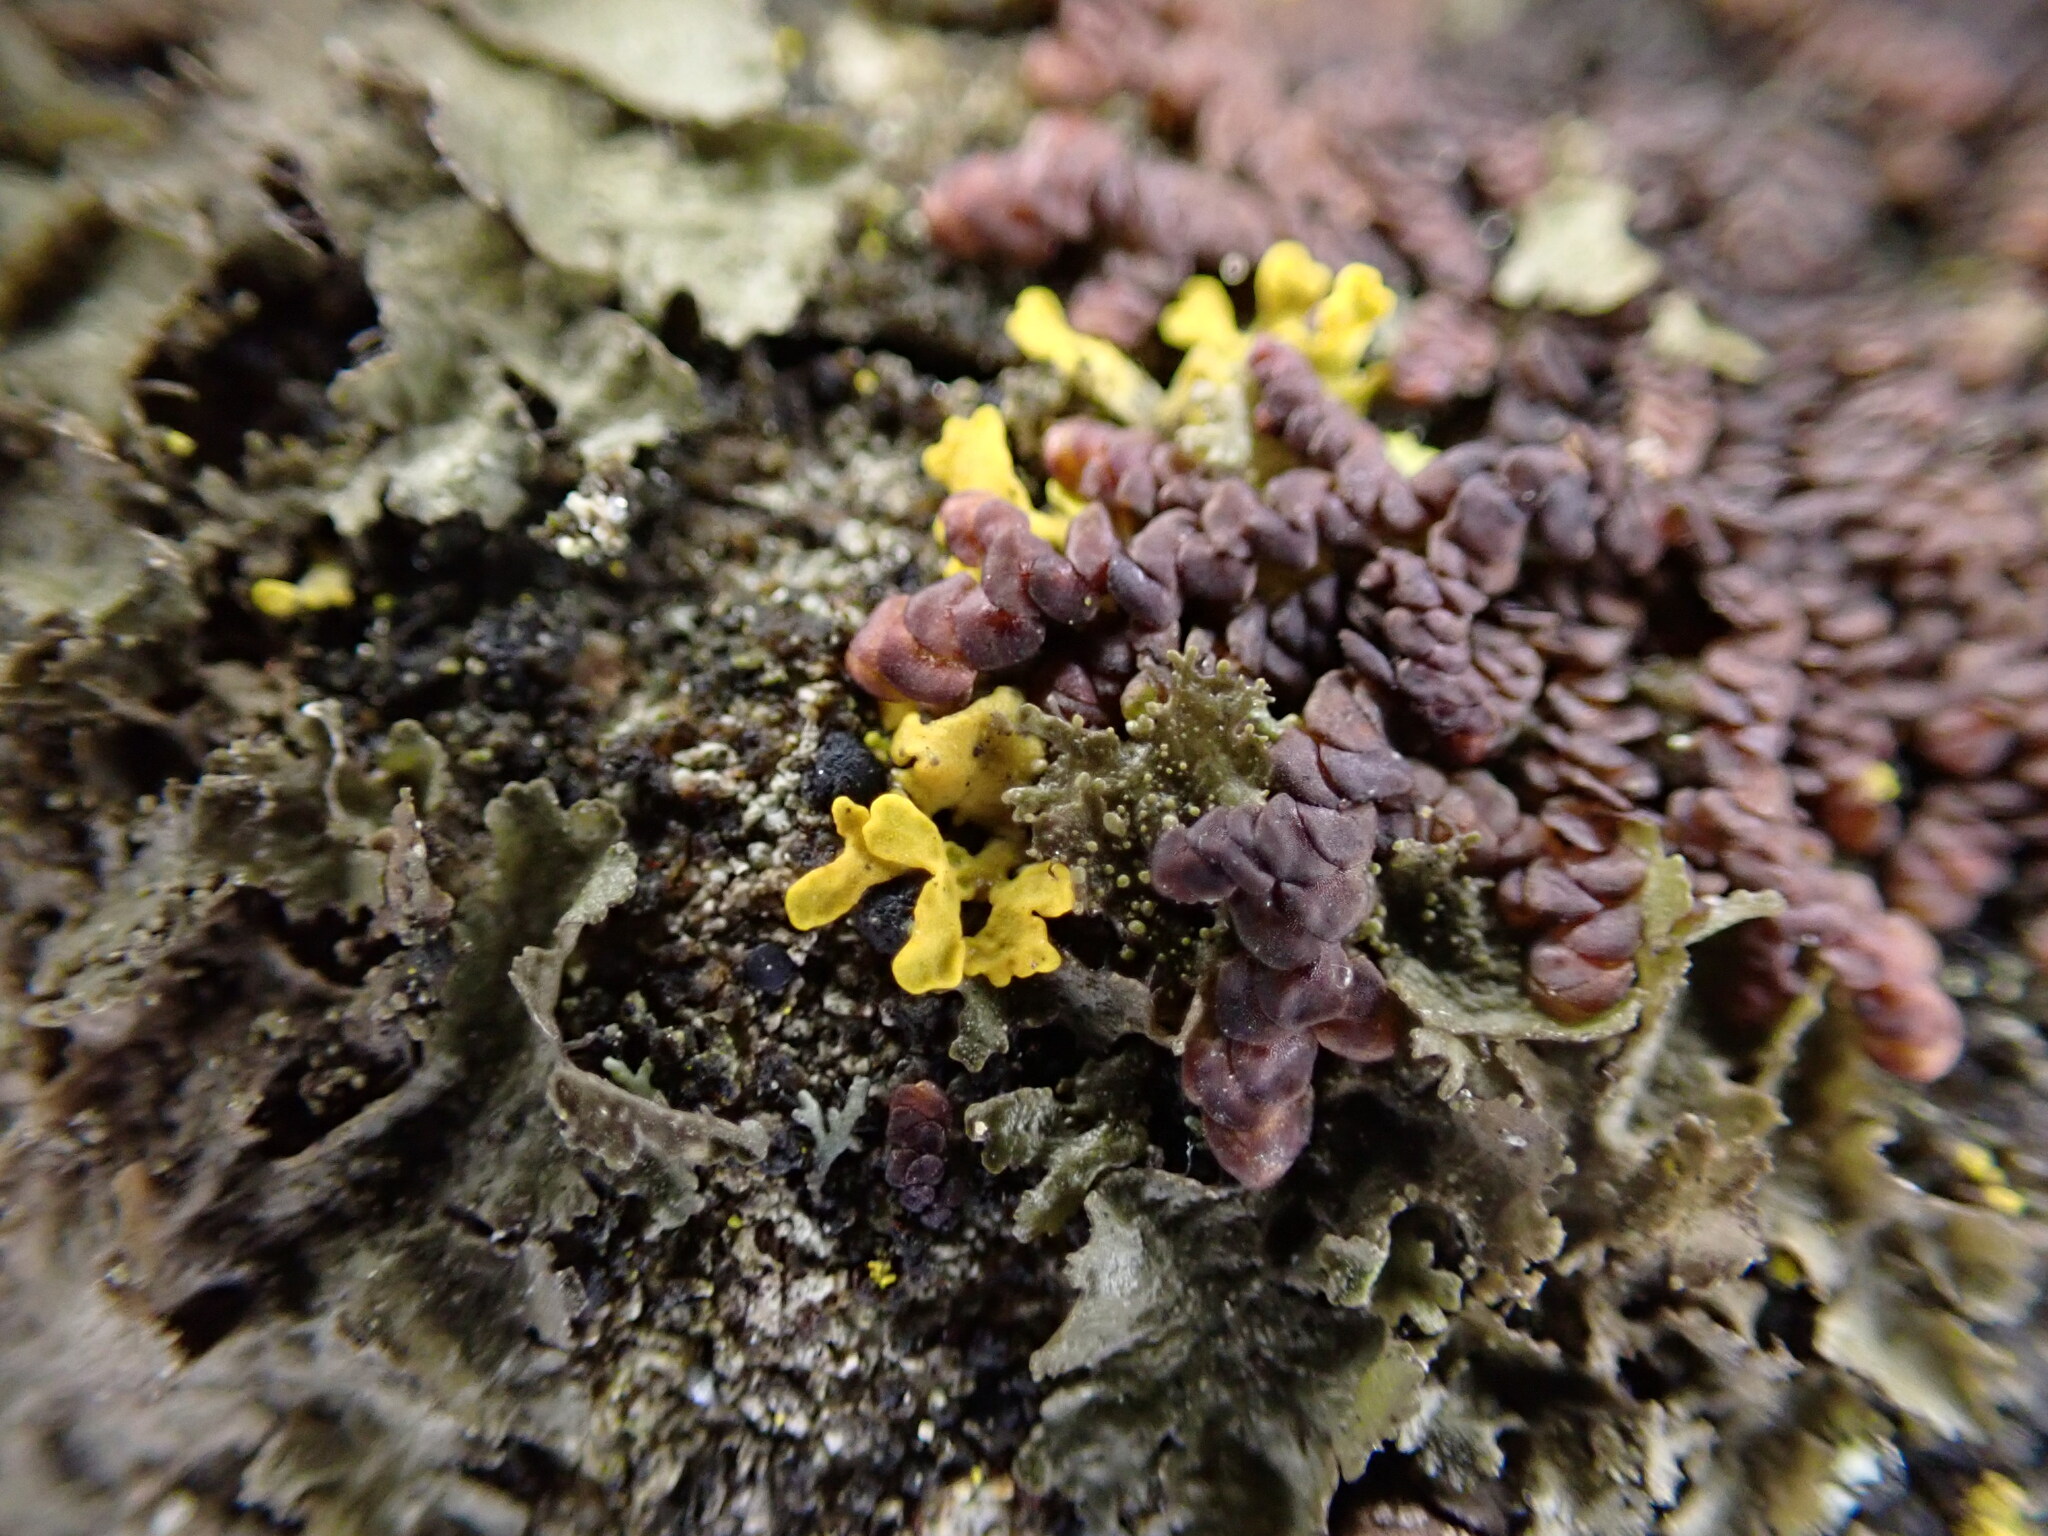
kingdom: Plantae
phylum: Marchantiophyta
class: Jungermanniopsida
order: Porellales
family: Frullaniaceae
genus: Frullania
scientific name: Frullania dilatata
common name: Dilated scalewort
